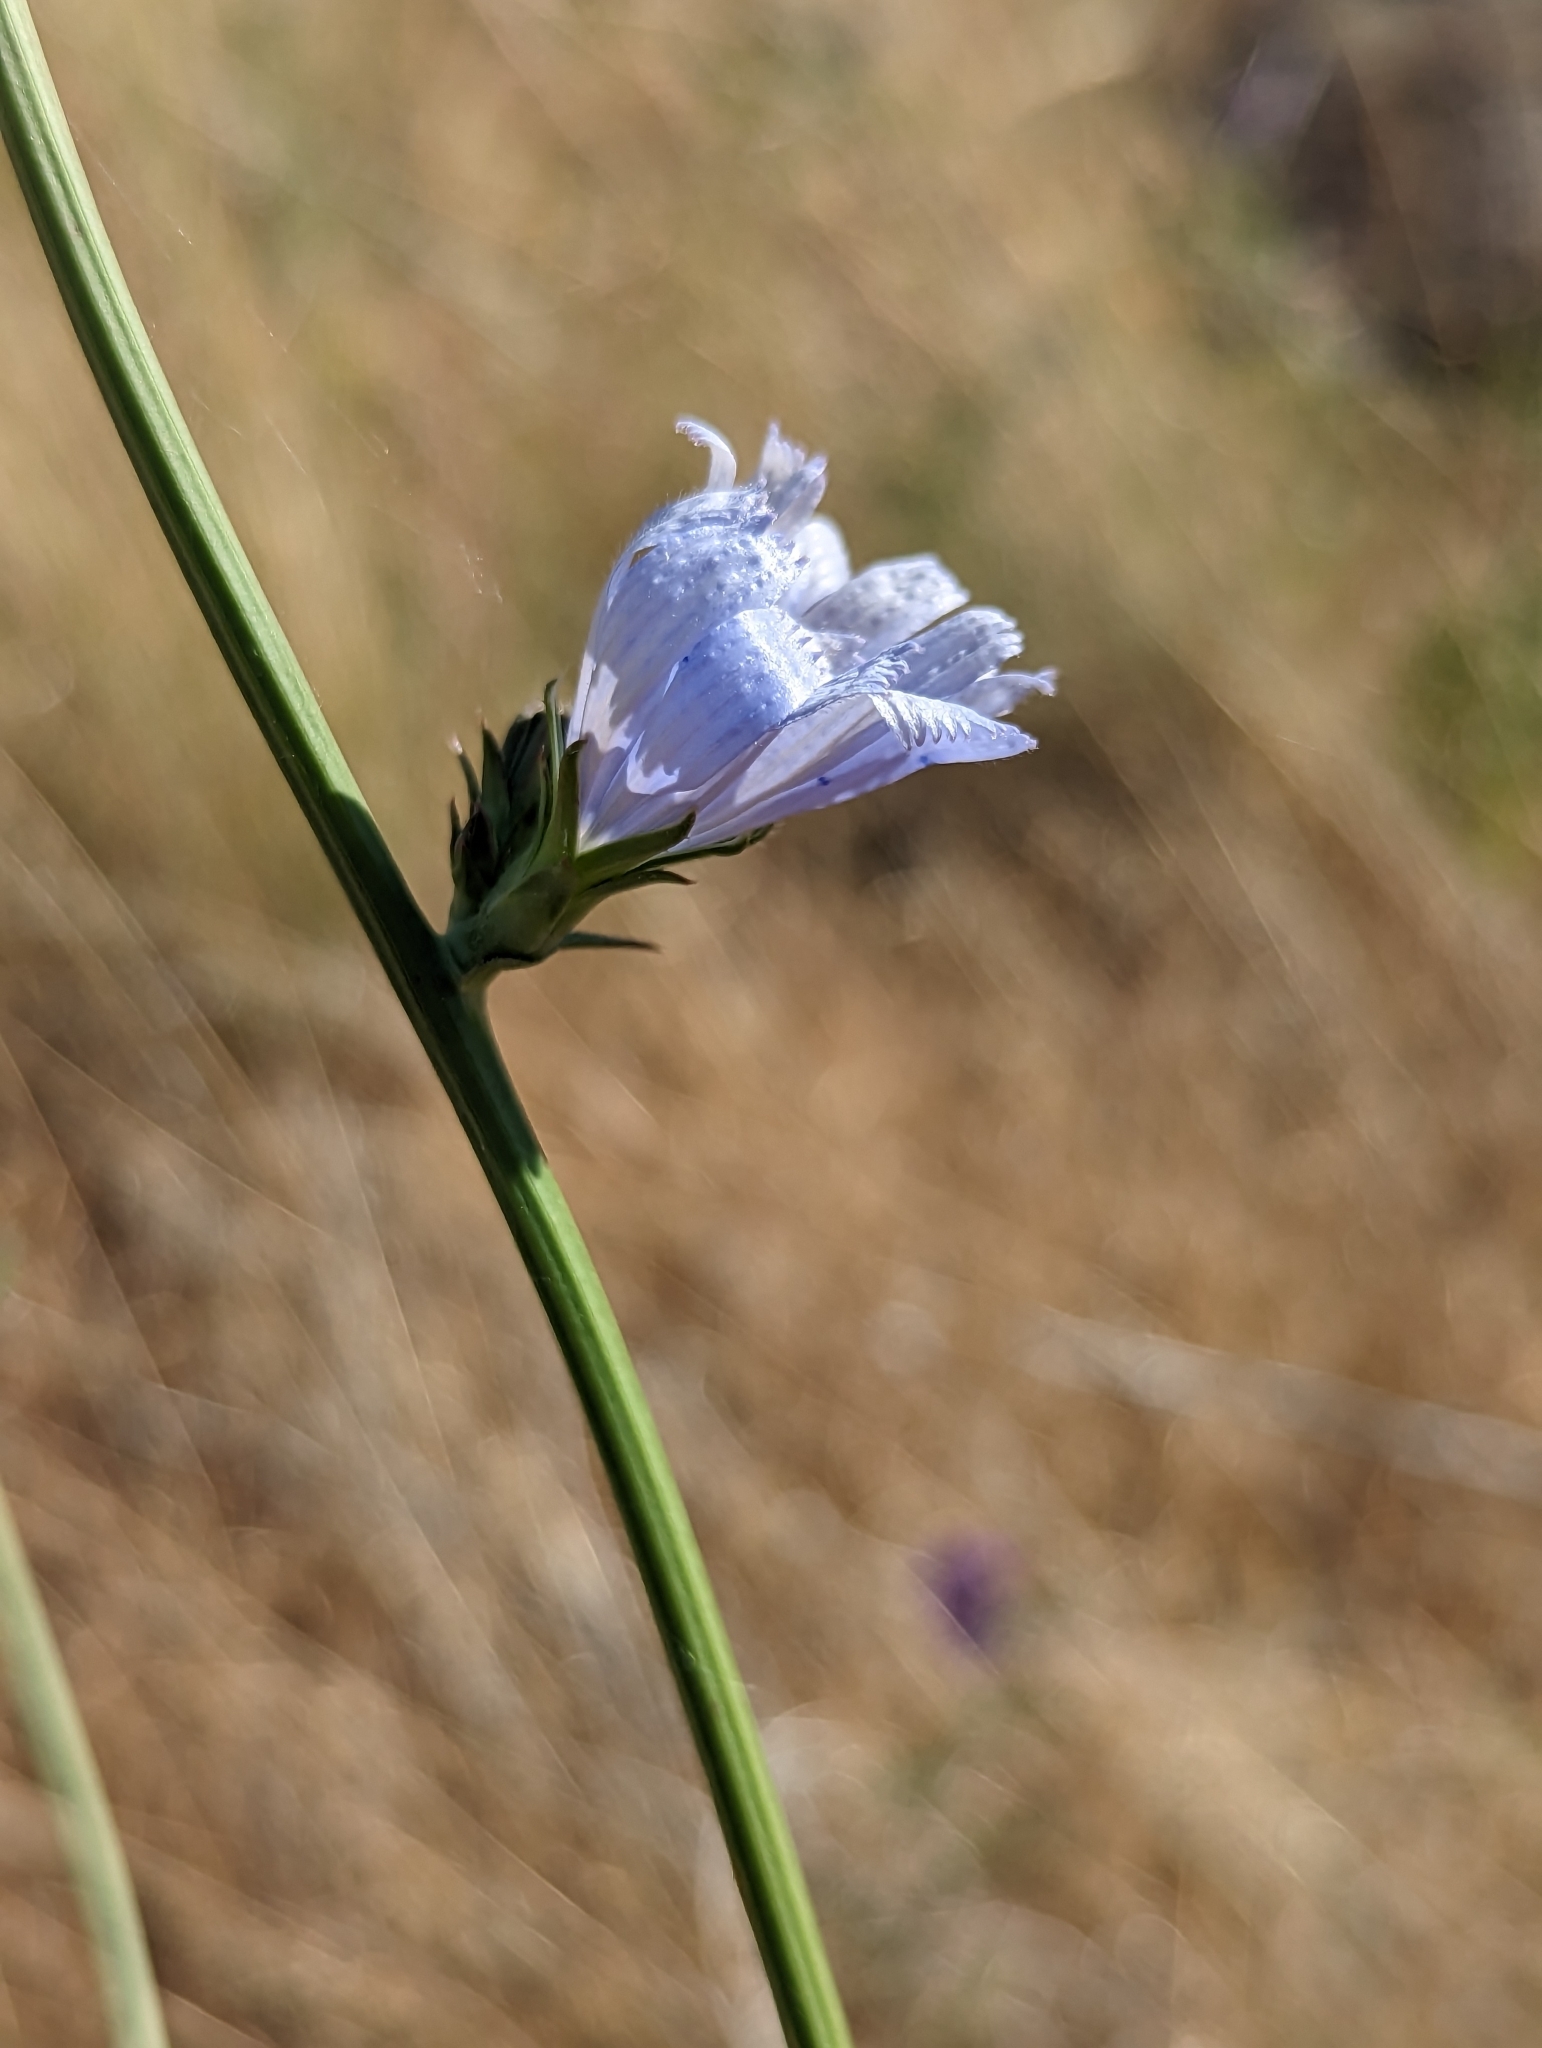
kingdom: Plantae
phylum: Tracheophyta
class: Magnoliopsida
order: Asterales
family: Asteraceae
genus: Cichorium
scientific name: Cichorium intybus
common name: Chicory
